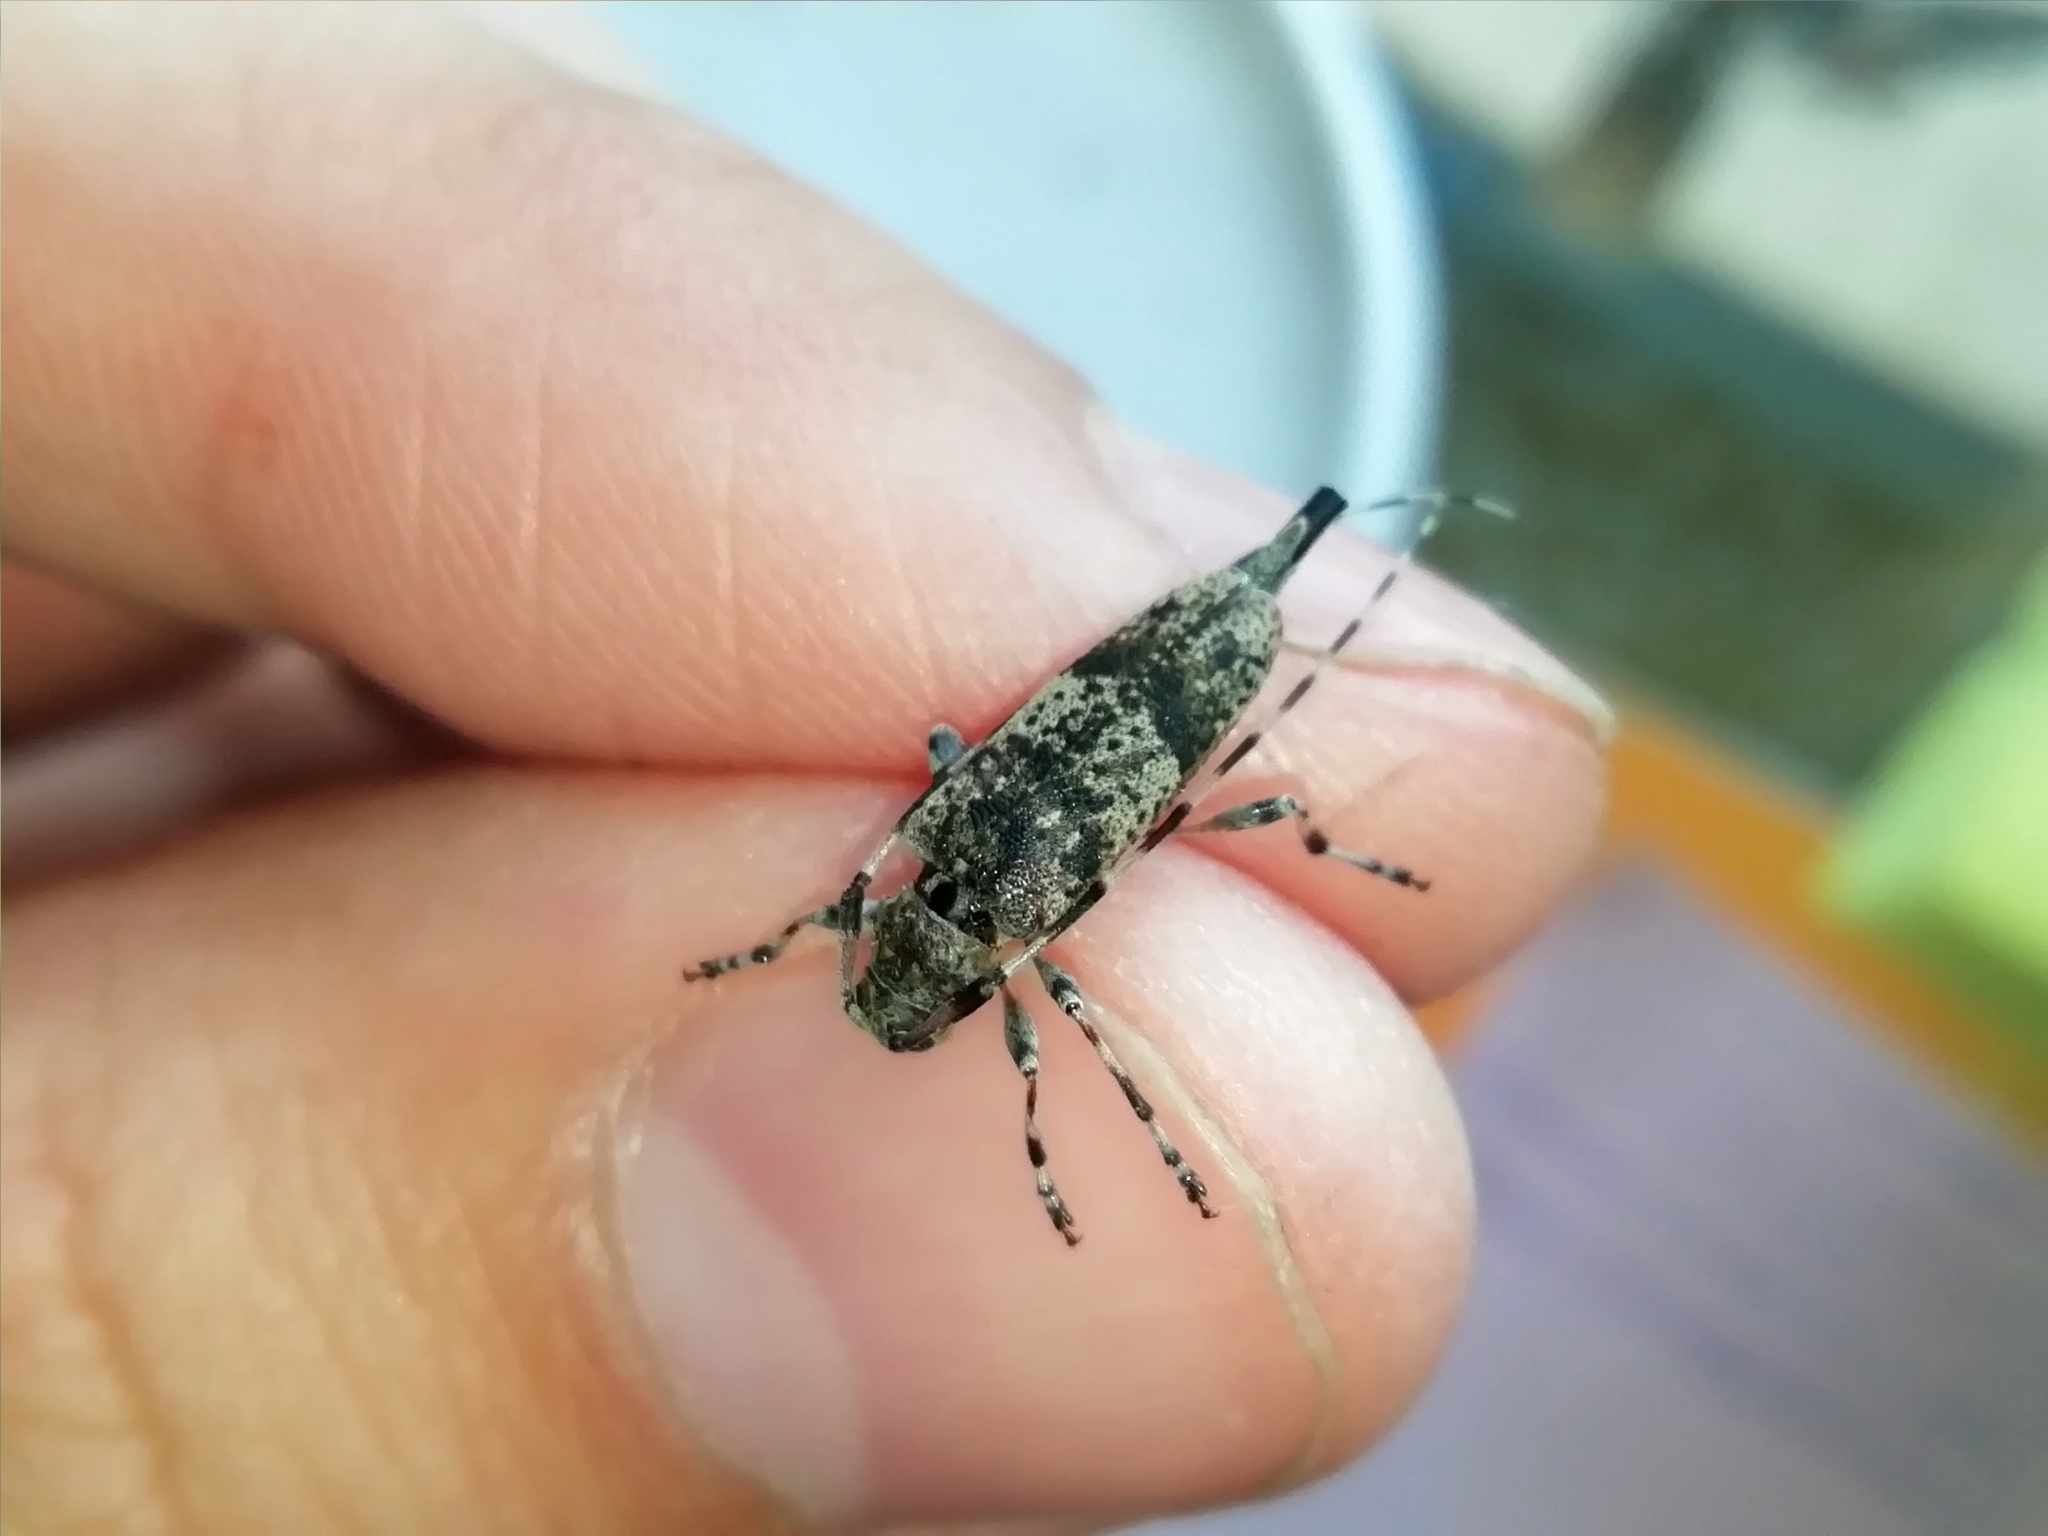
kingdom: Animalia
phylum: Arthropoda
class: Insecta
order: Coleoptera
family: Cerambycidae
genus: Acanthocinus
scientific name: Acanthocinus griseus
